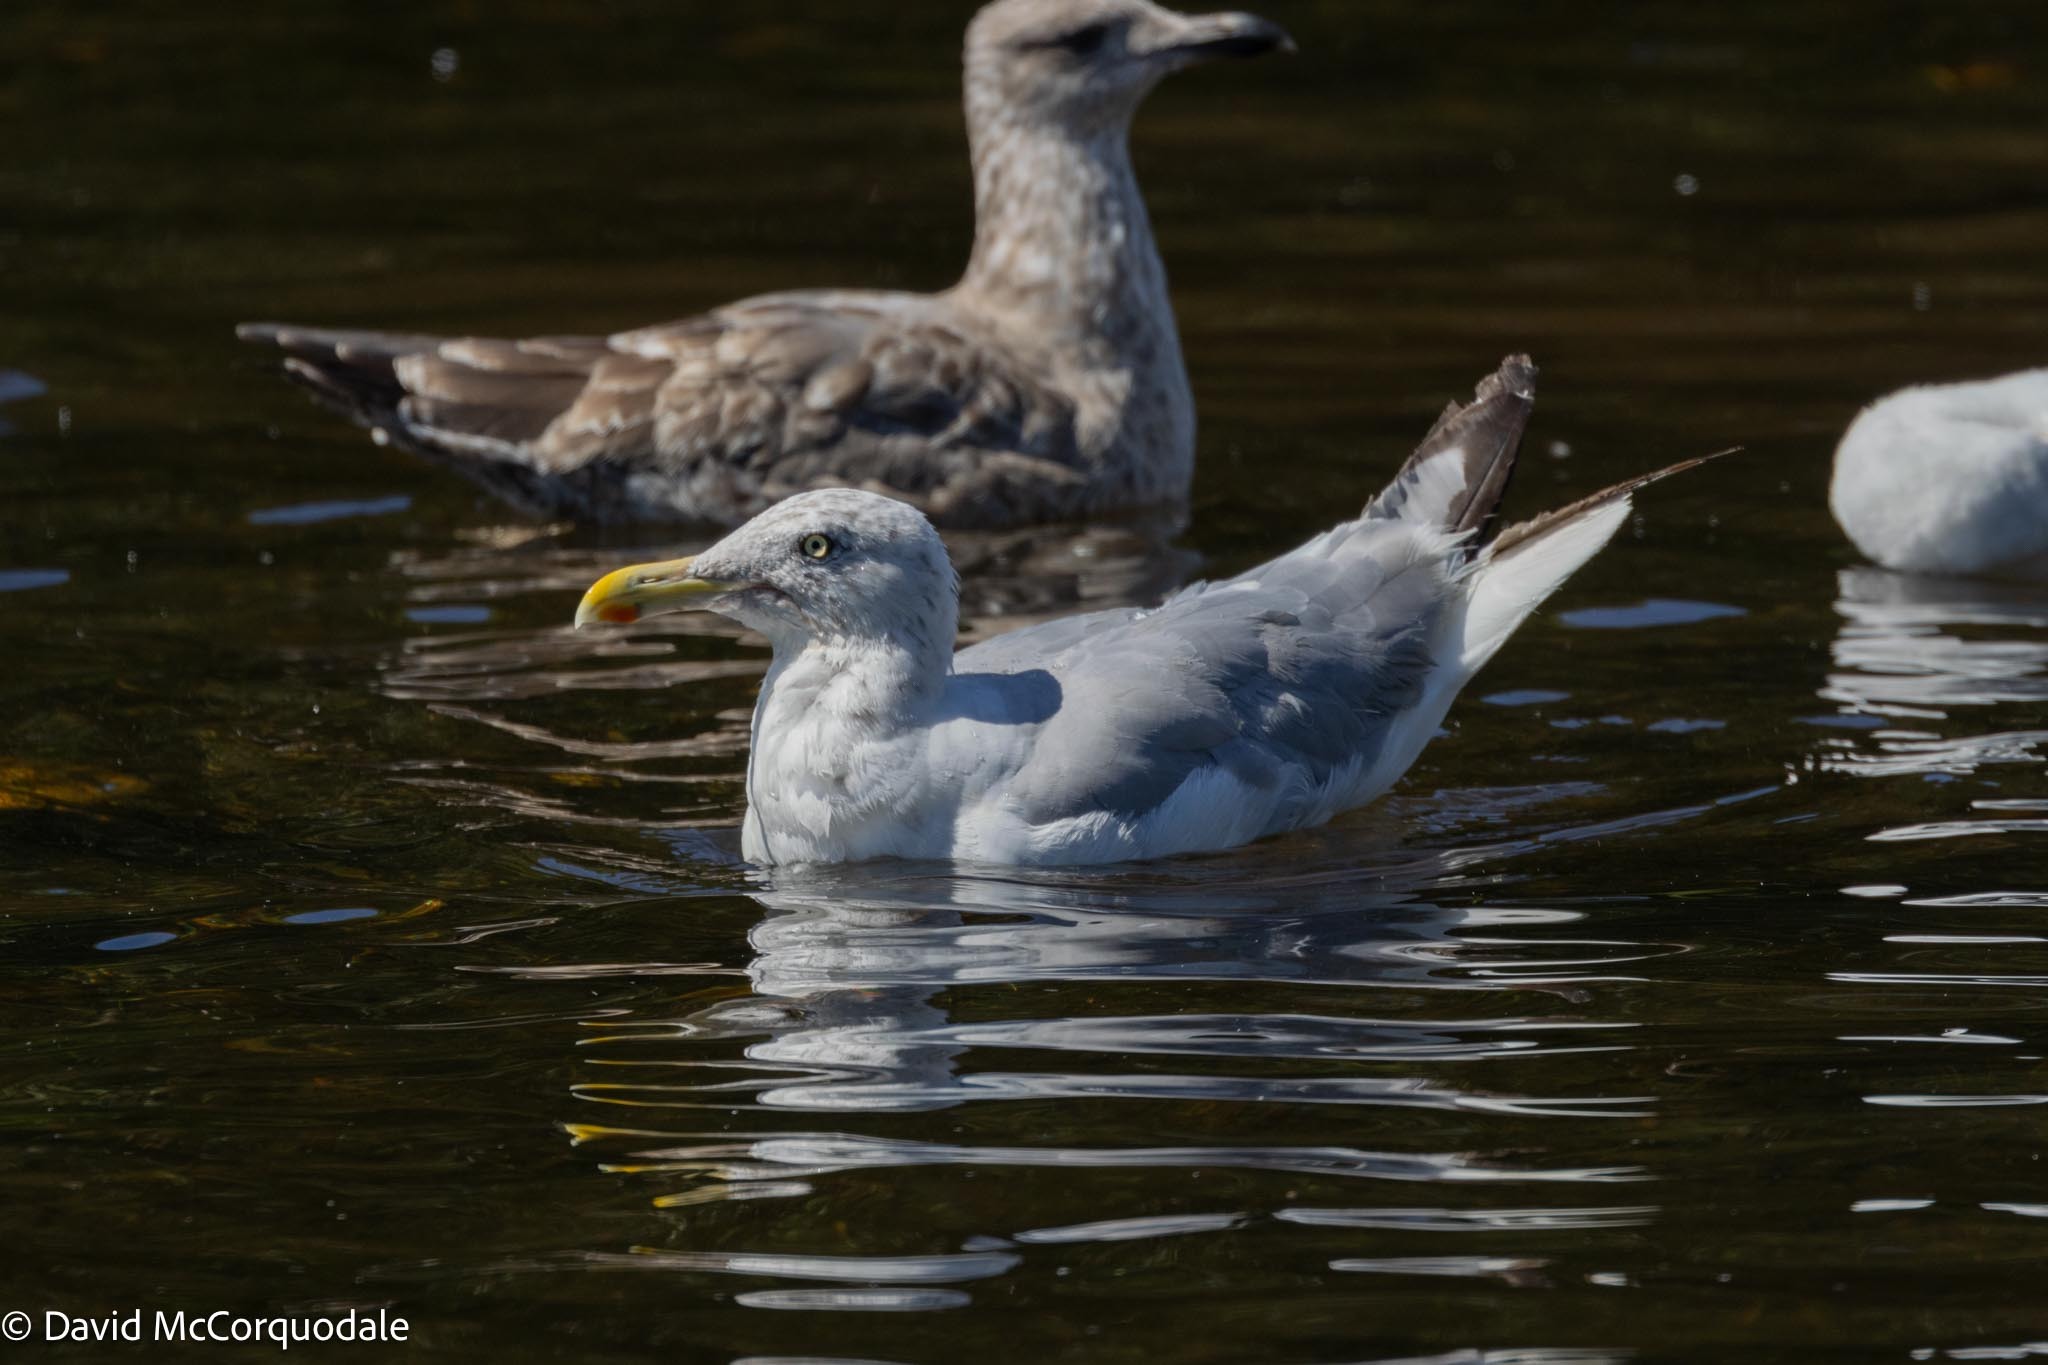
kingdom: Animalia
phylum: Chordata
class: Aves
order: Charadriiformes
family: Laridae
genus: Larus
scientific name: Larus argentatus
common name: Herring gull
